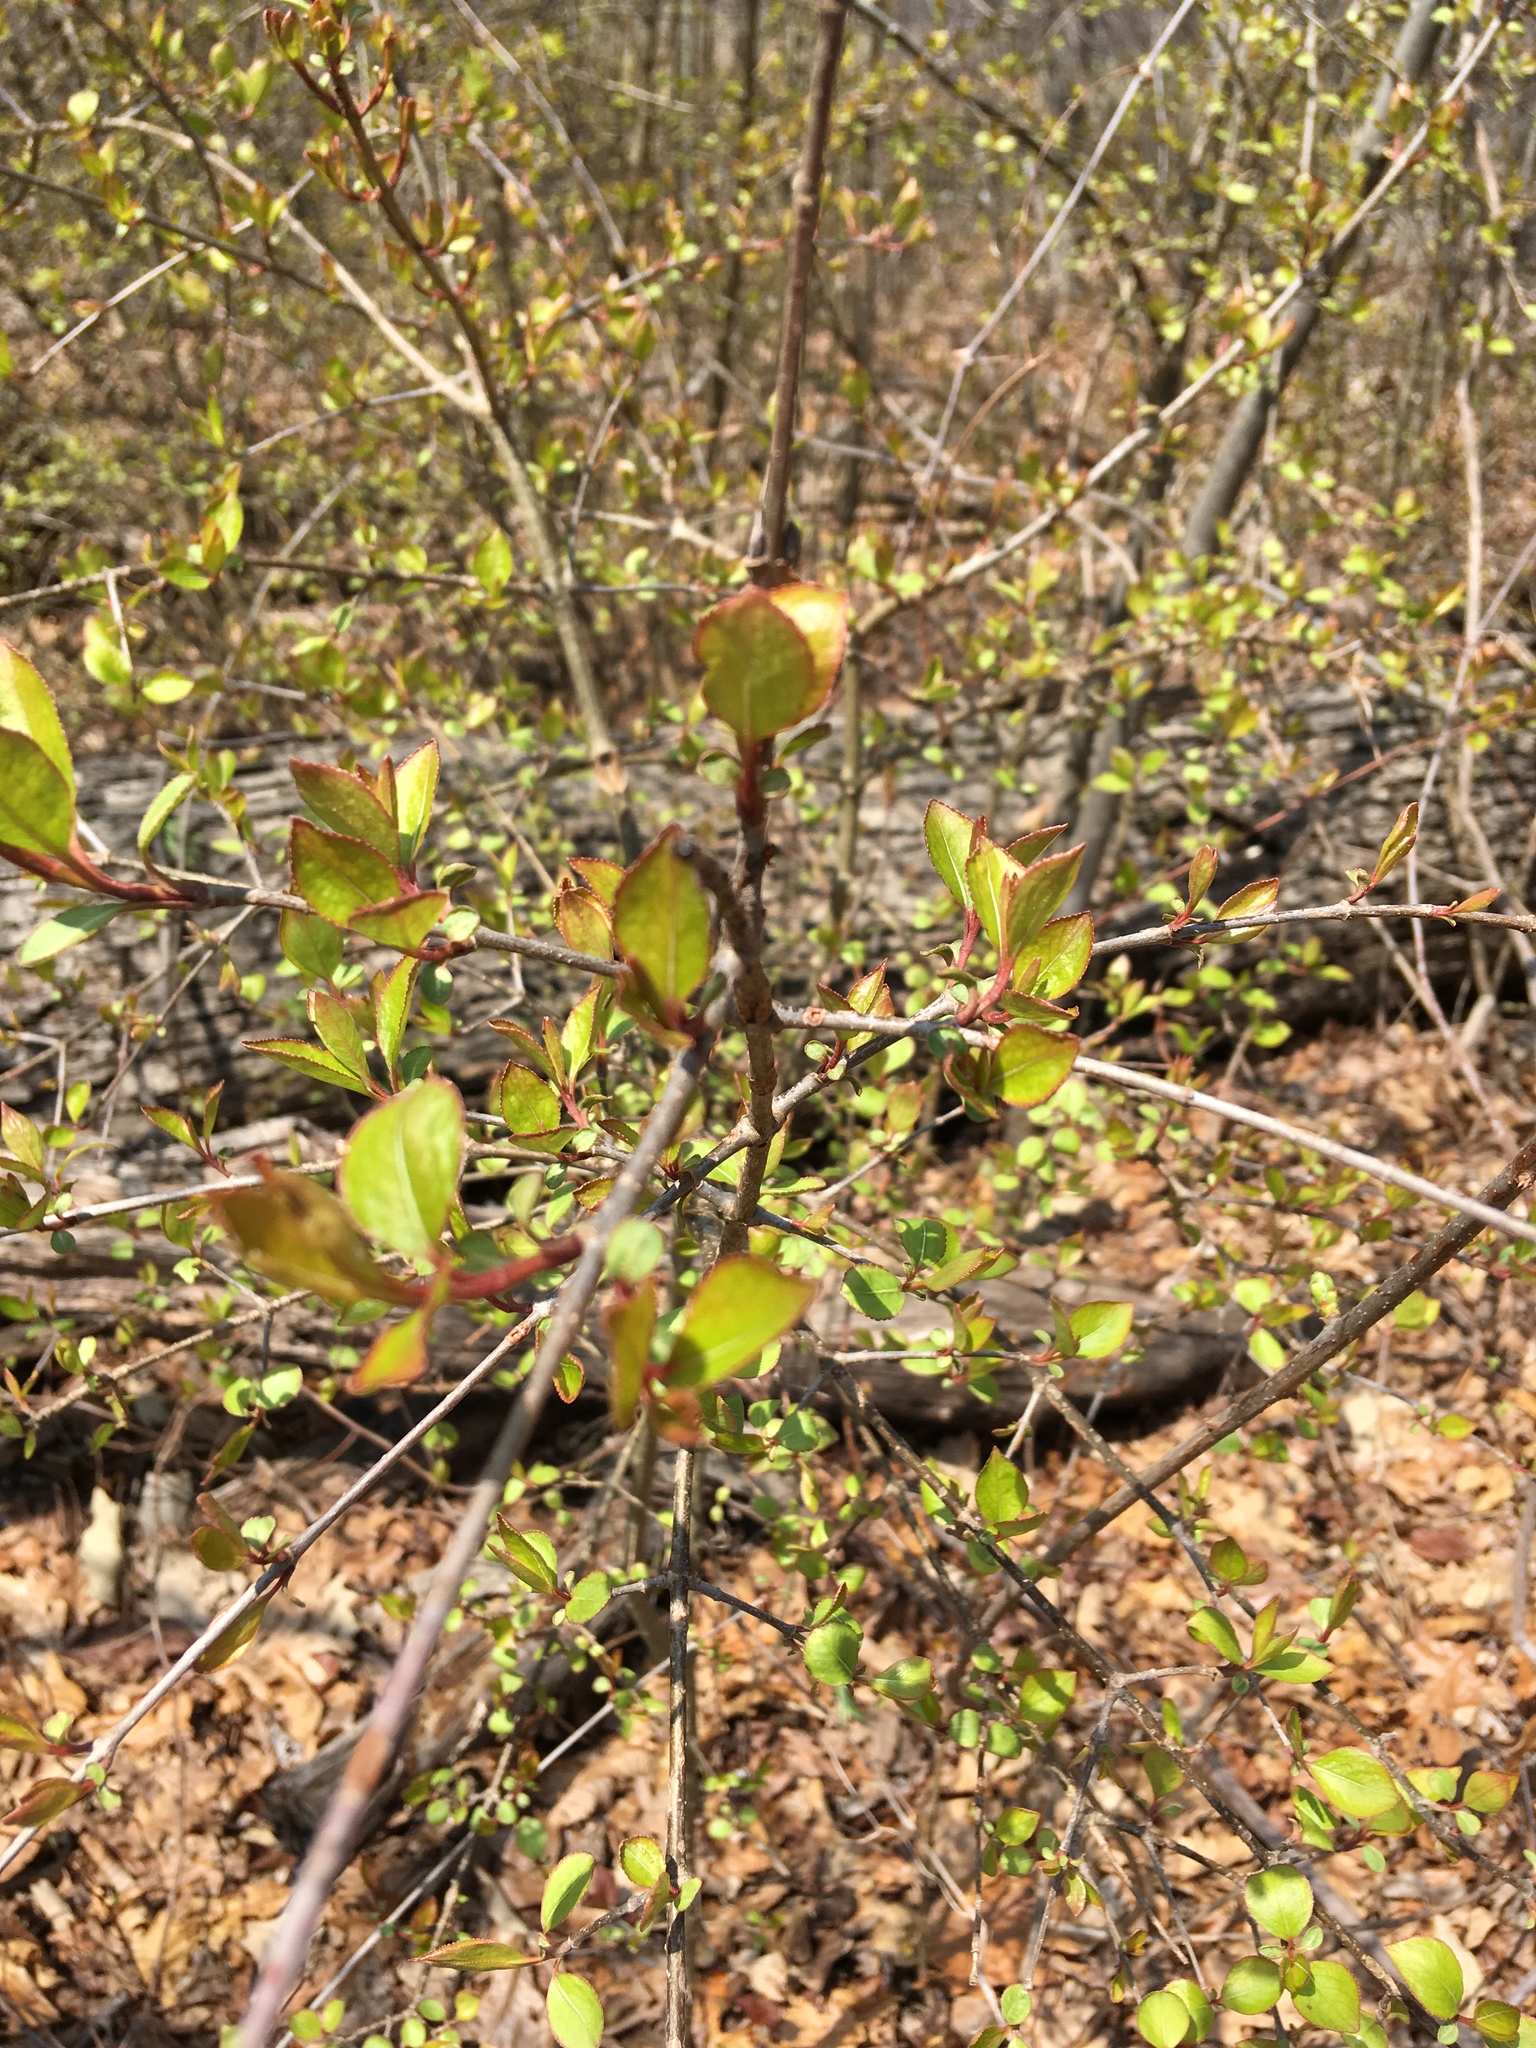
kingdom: Plantae
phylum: Tracheophyta
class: Magnoliopsida
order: Dipsacales
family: Viburnaceae
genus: Viburnum
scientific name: Viburnum prunifolium
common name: Black haw
